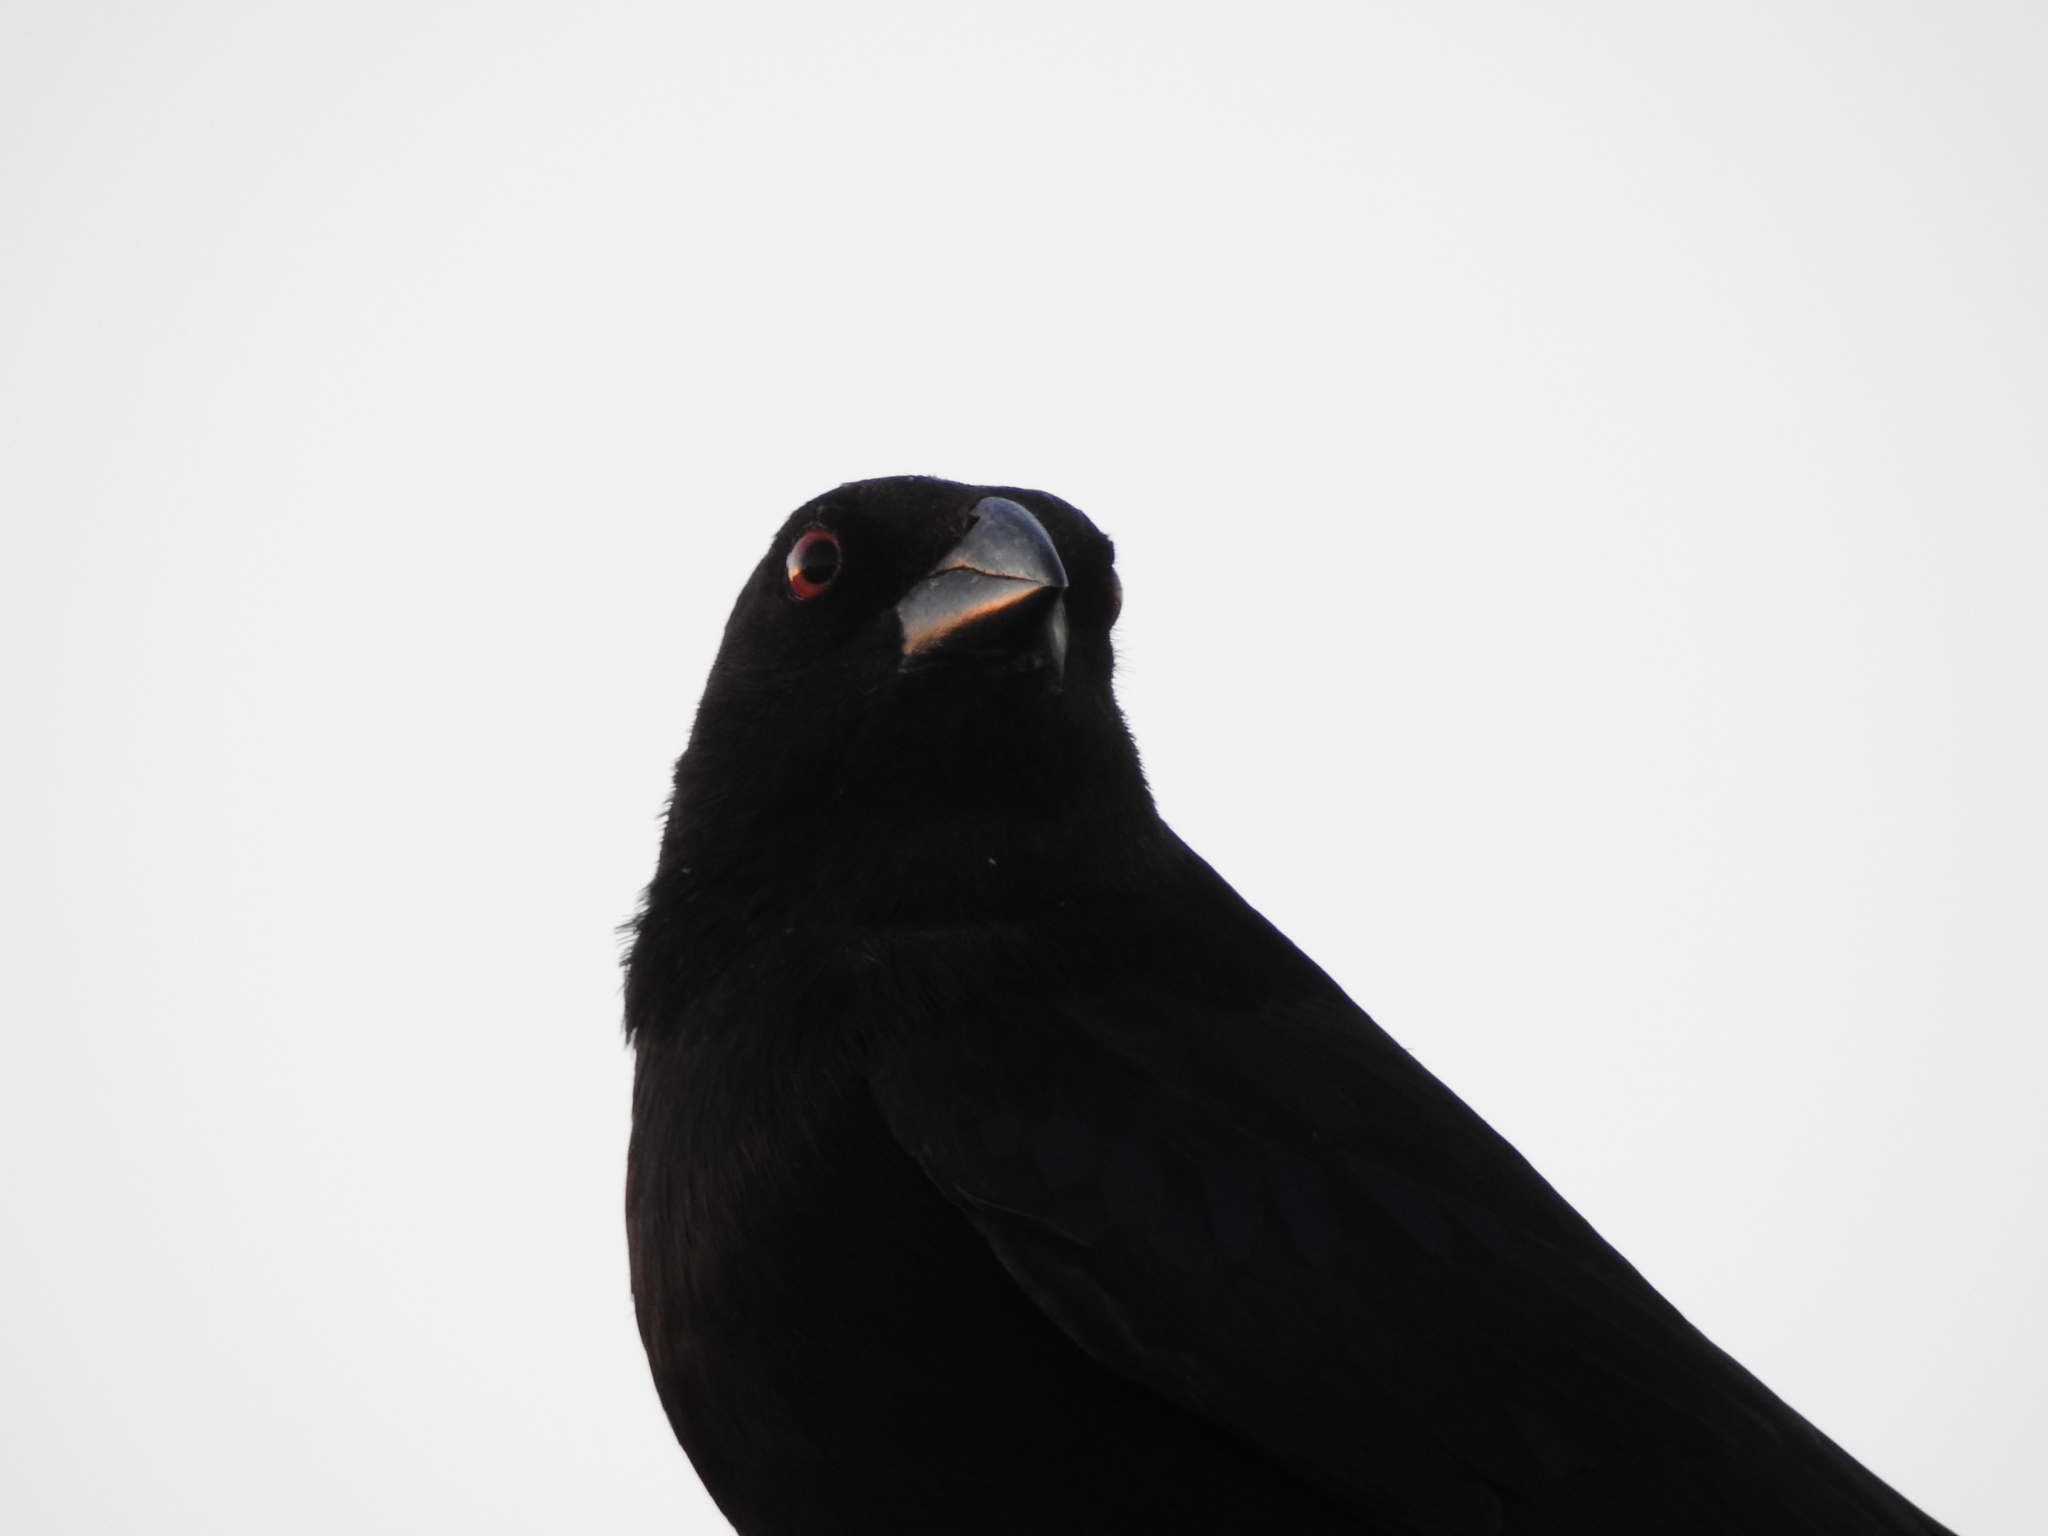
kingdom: Animalia
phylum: Chordata
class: Aves
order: Passeriformes
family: Icteridae
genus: Molothrus
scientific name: Molothrus aeneus
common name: Bronzed cowbird
